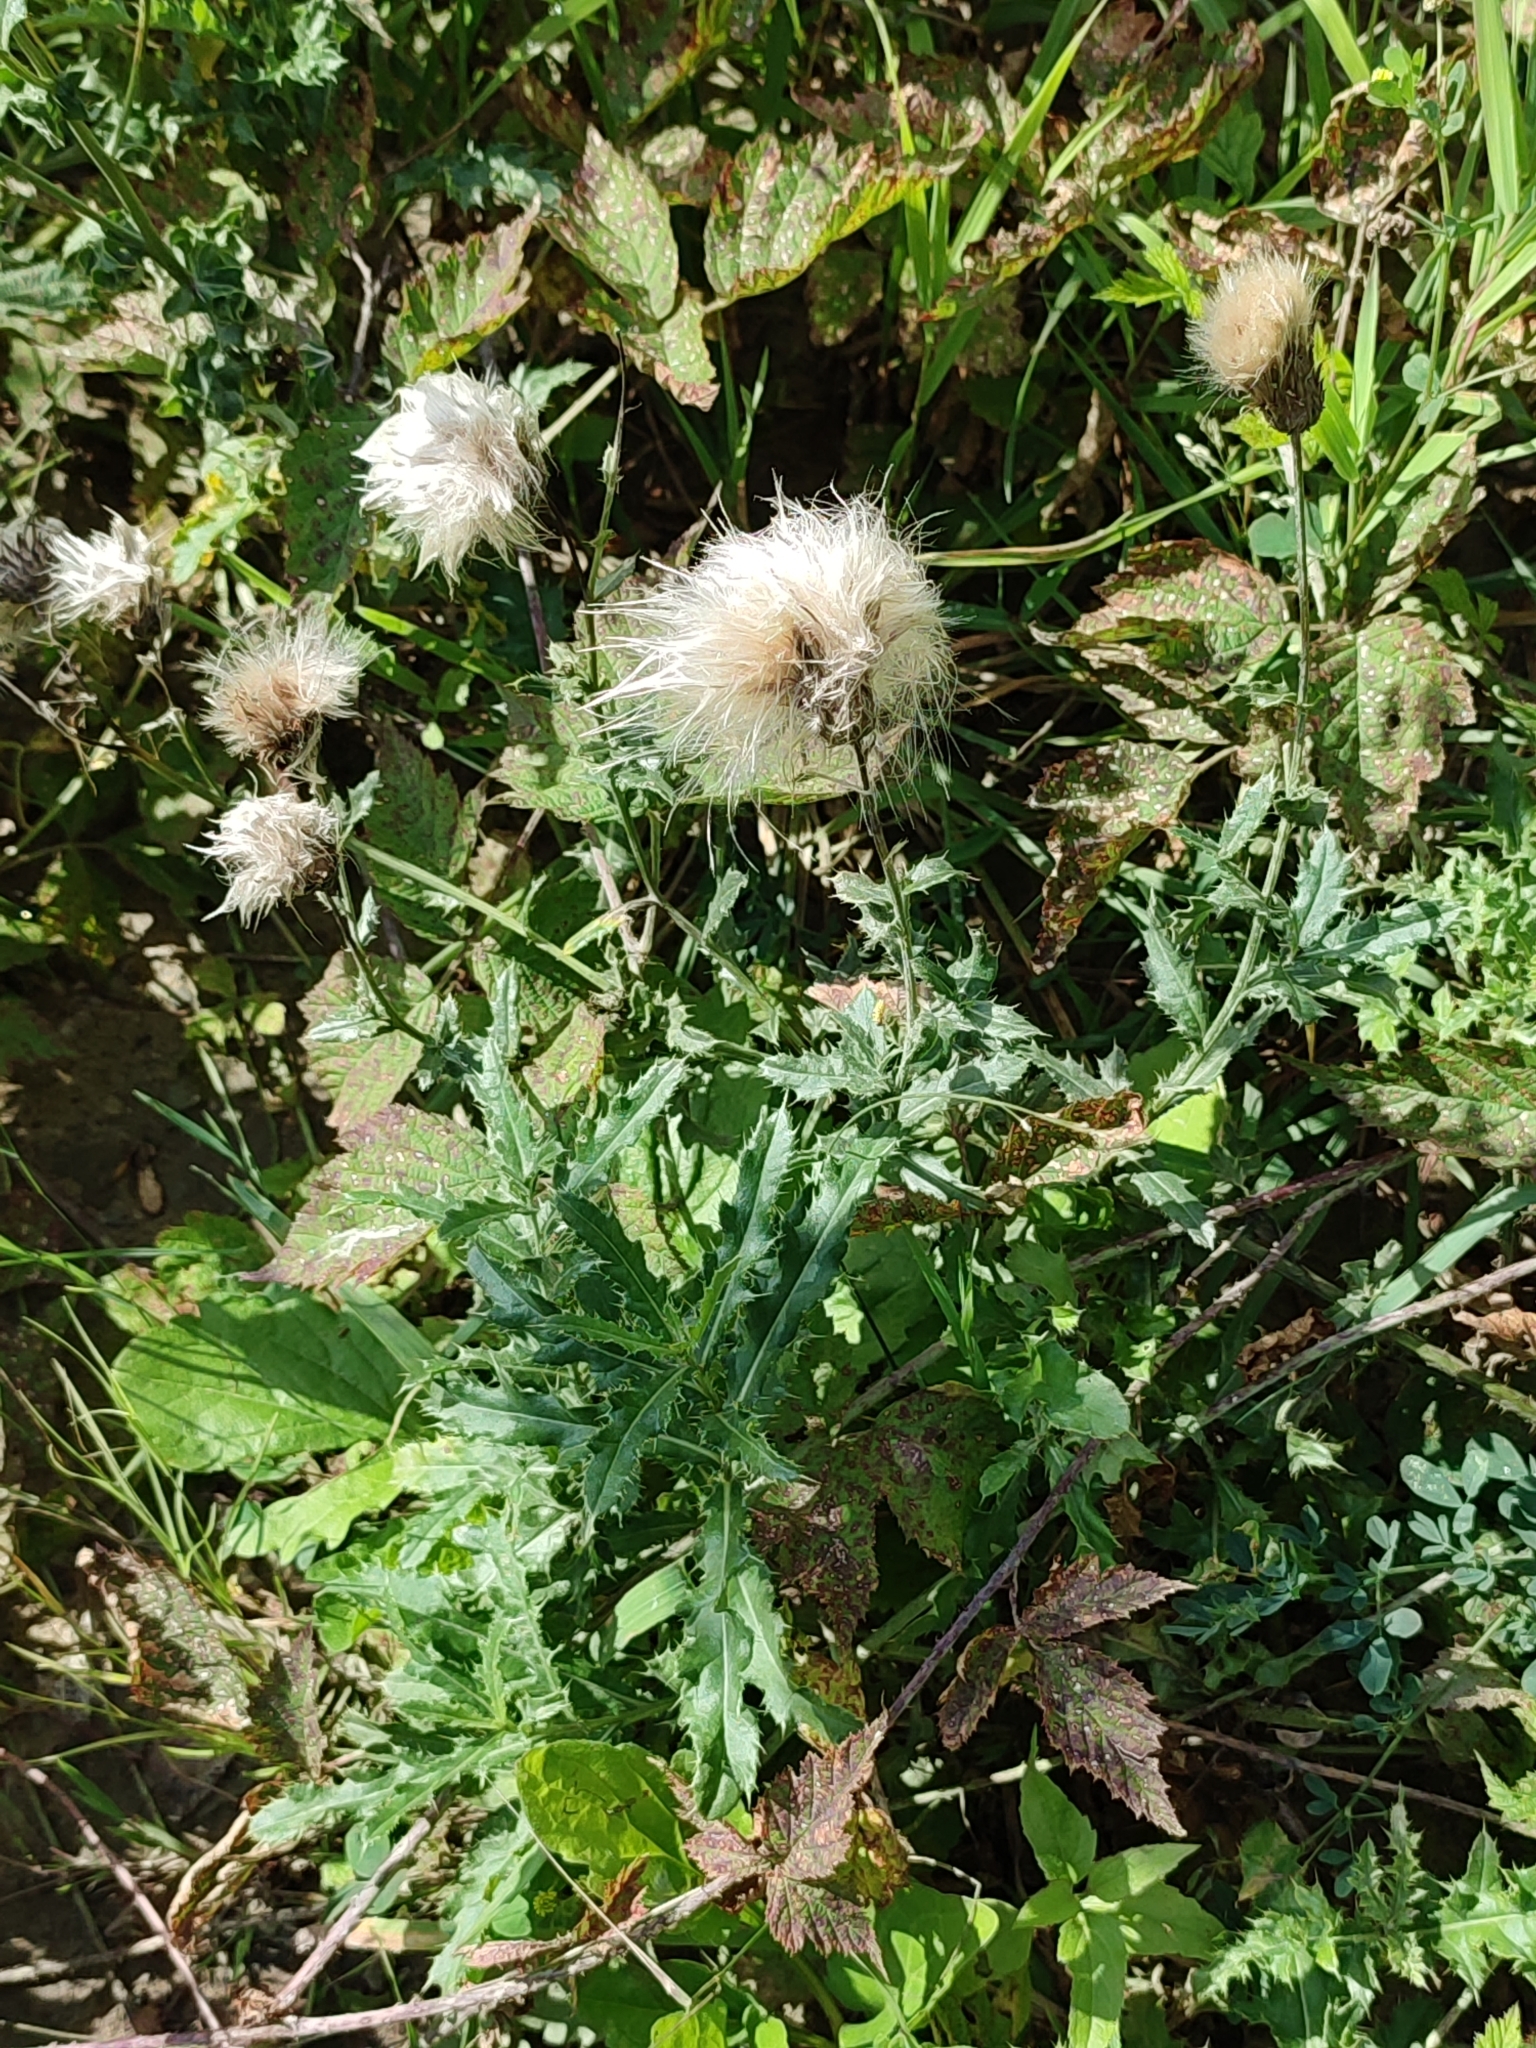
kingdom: Plantae
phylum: Tracheophyta
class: Magnoliopsida
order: Asterales
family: Asteraceae
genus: Cirsium
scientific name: Cirsium arvense
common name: Creeping thistle
